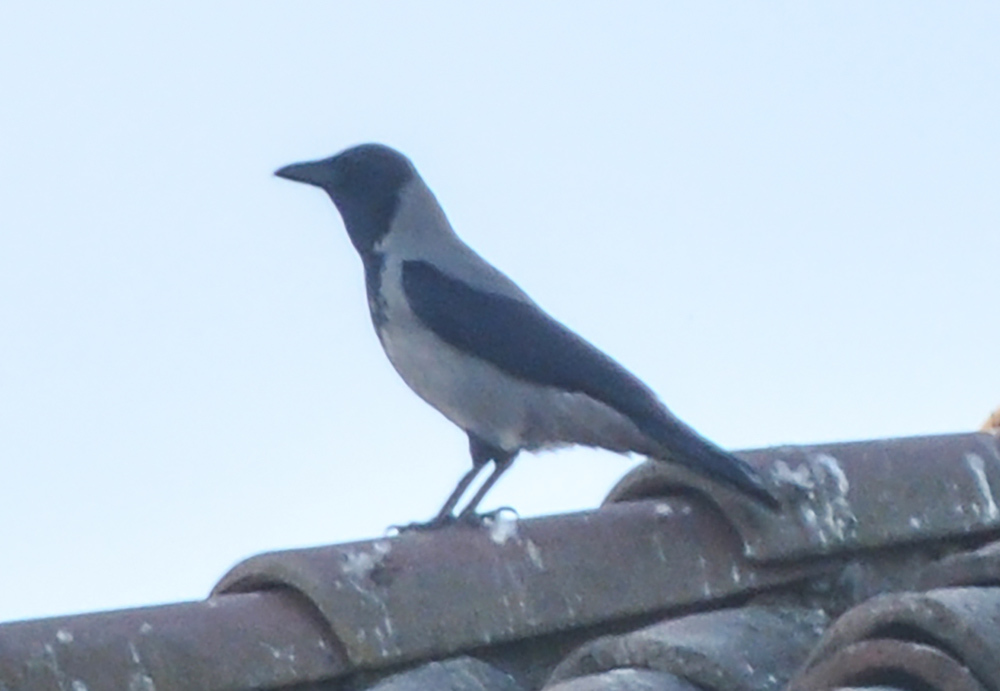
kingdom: Animalia
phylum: Chordata
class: Aves
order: Passeriformes
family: Corvidae
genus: Corvus
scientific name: Corvus cornix
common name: Hooded crow
